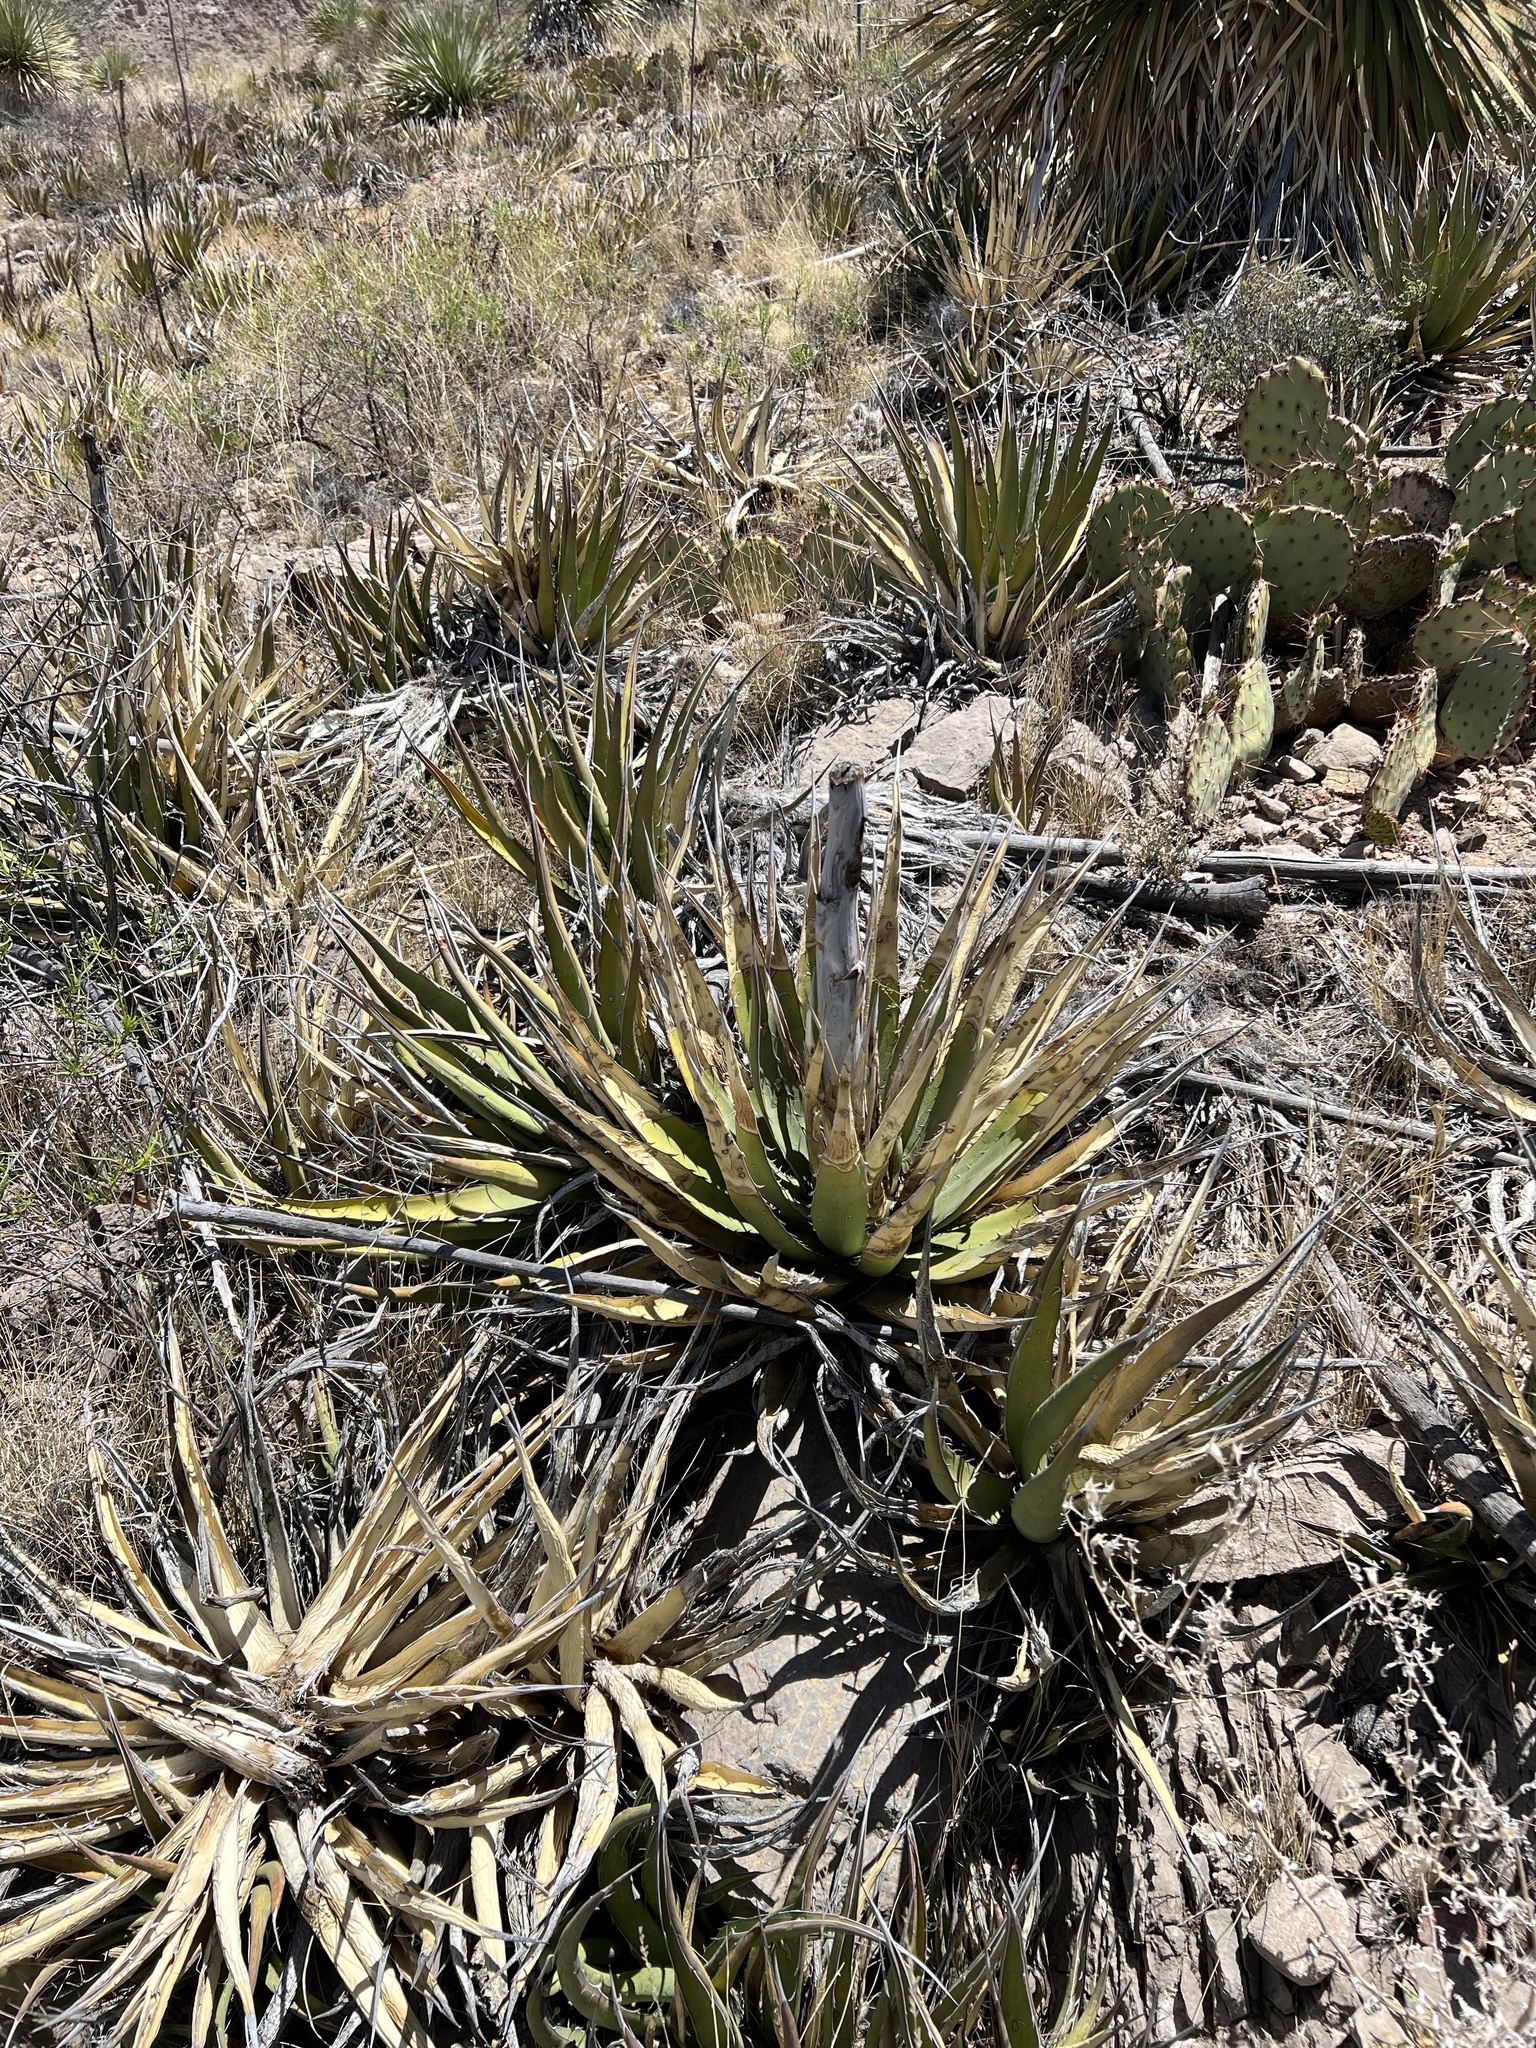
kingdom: Plantae
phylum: Tracheophyta
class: Liliopsida
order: Asparagales
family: Asparagaceae
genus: Agave
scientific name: Agave lechuguilla
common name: Lecheguilla agave
